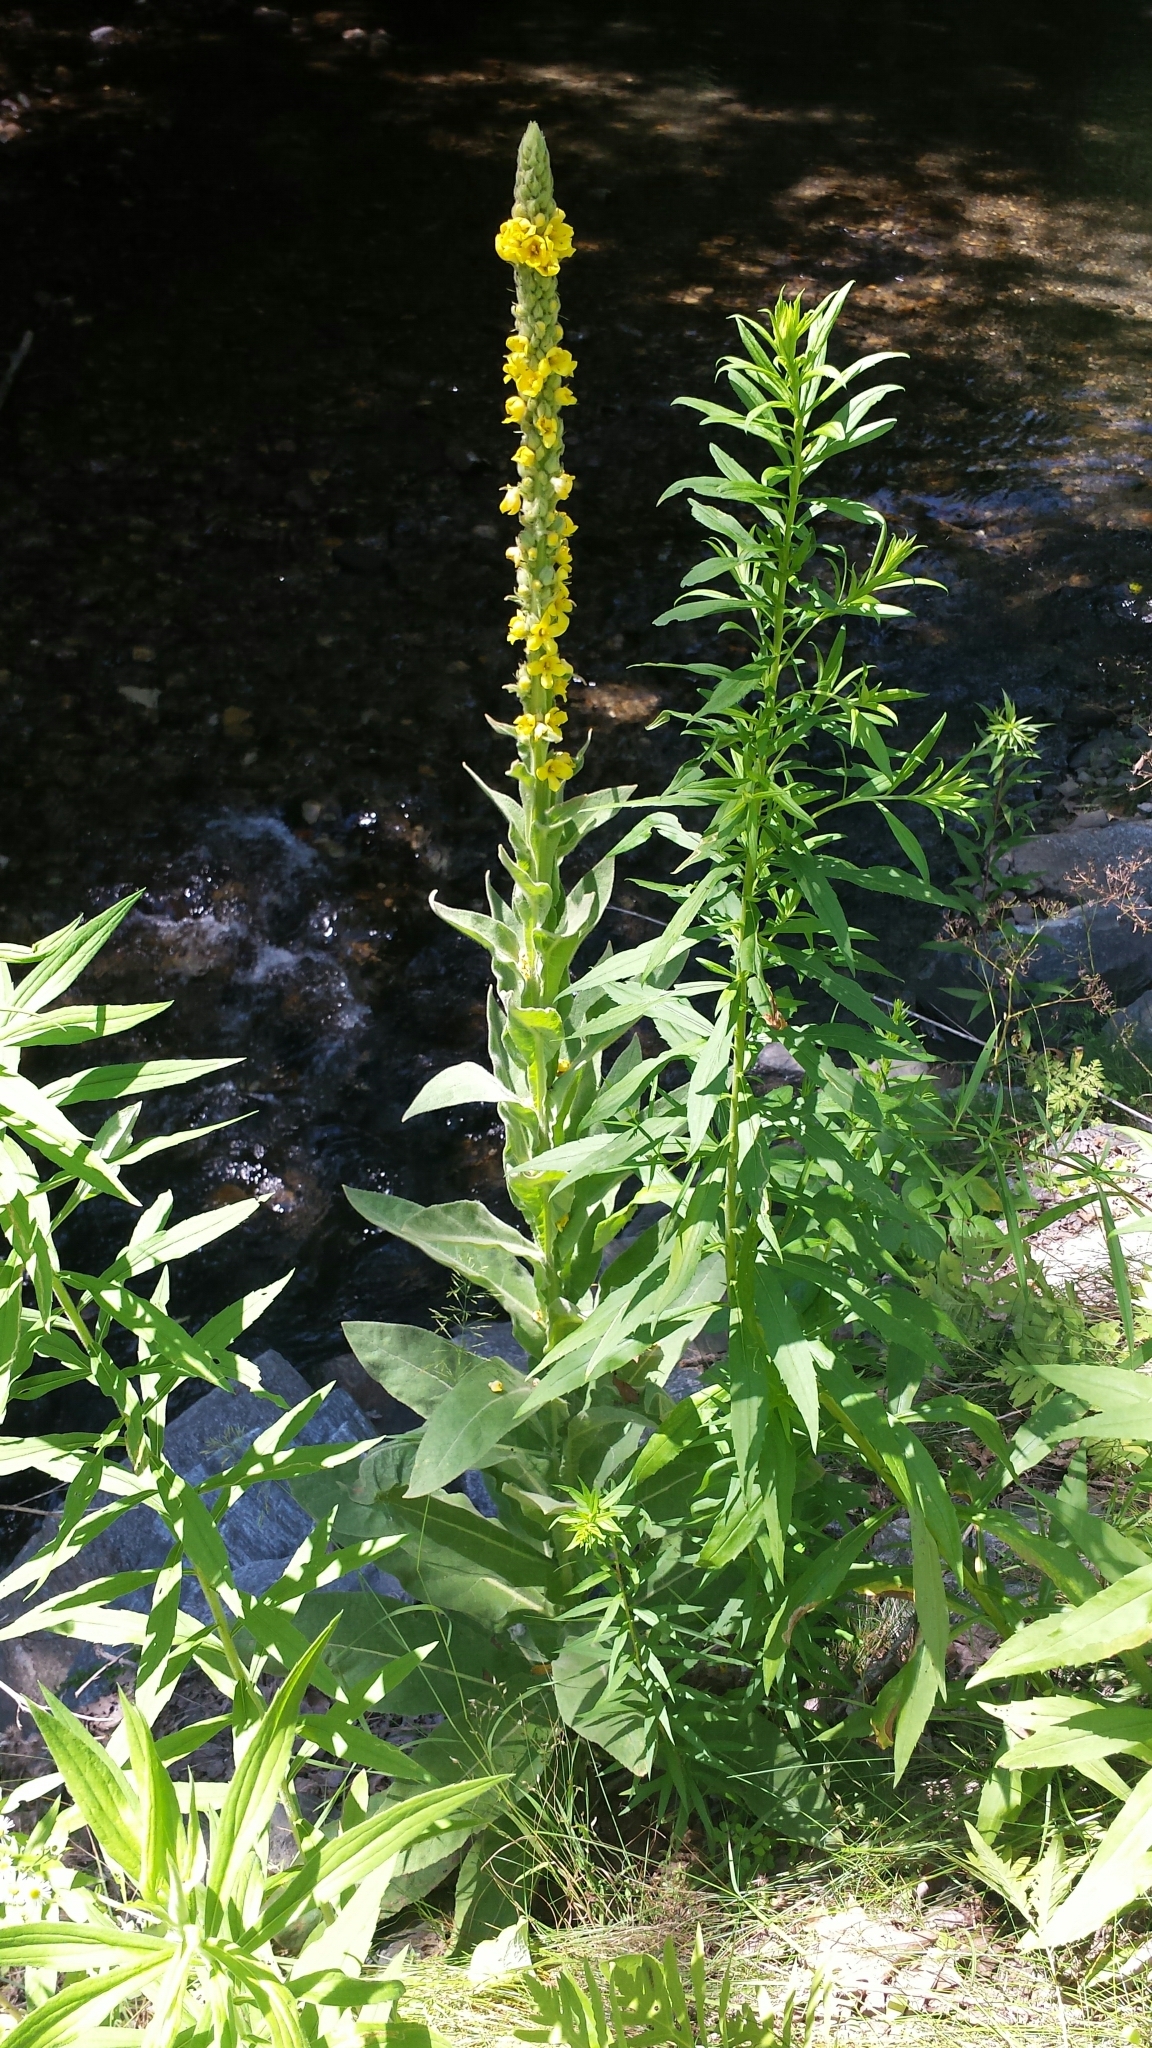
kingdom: Plantae
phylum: Tracheophyta
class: Magnoliopsida
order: Lamiales
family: Scrophulariaceae
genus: Verbascum
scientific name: Verbascum thapsus
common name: Common mullein
